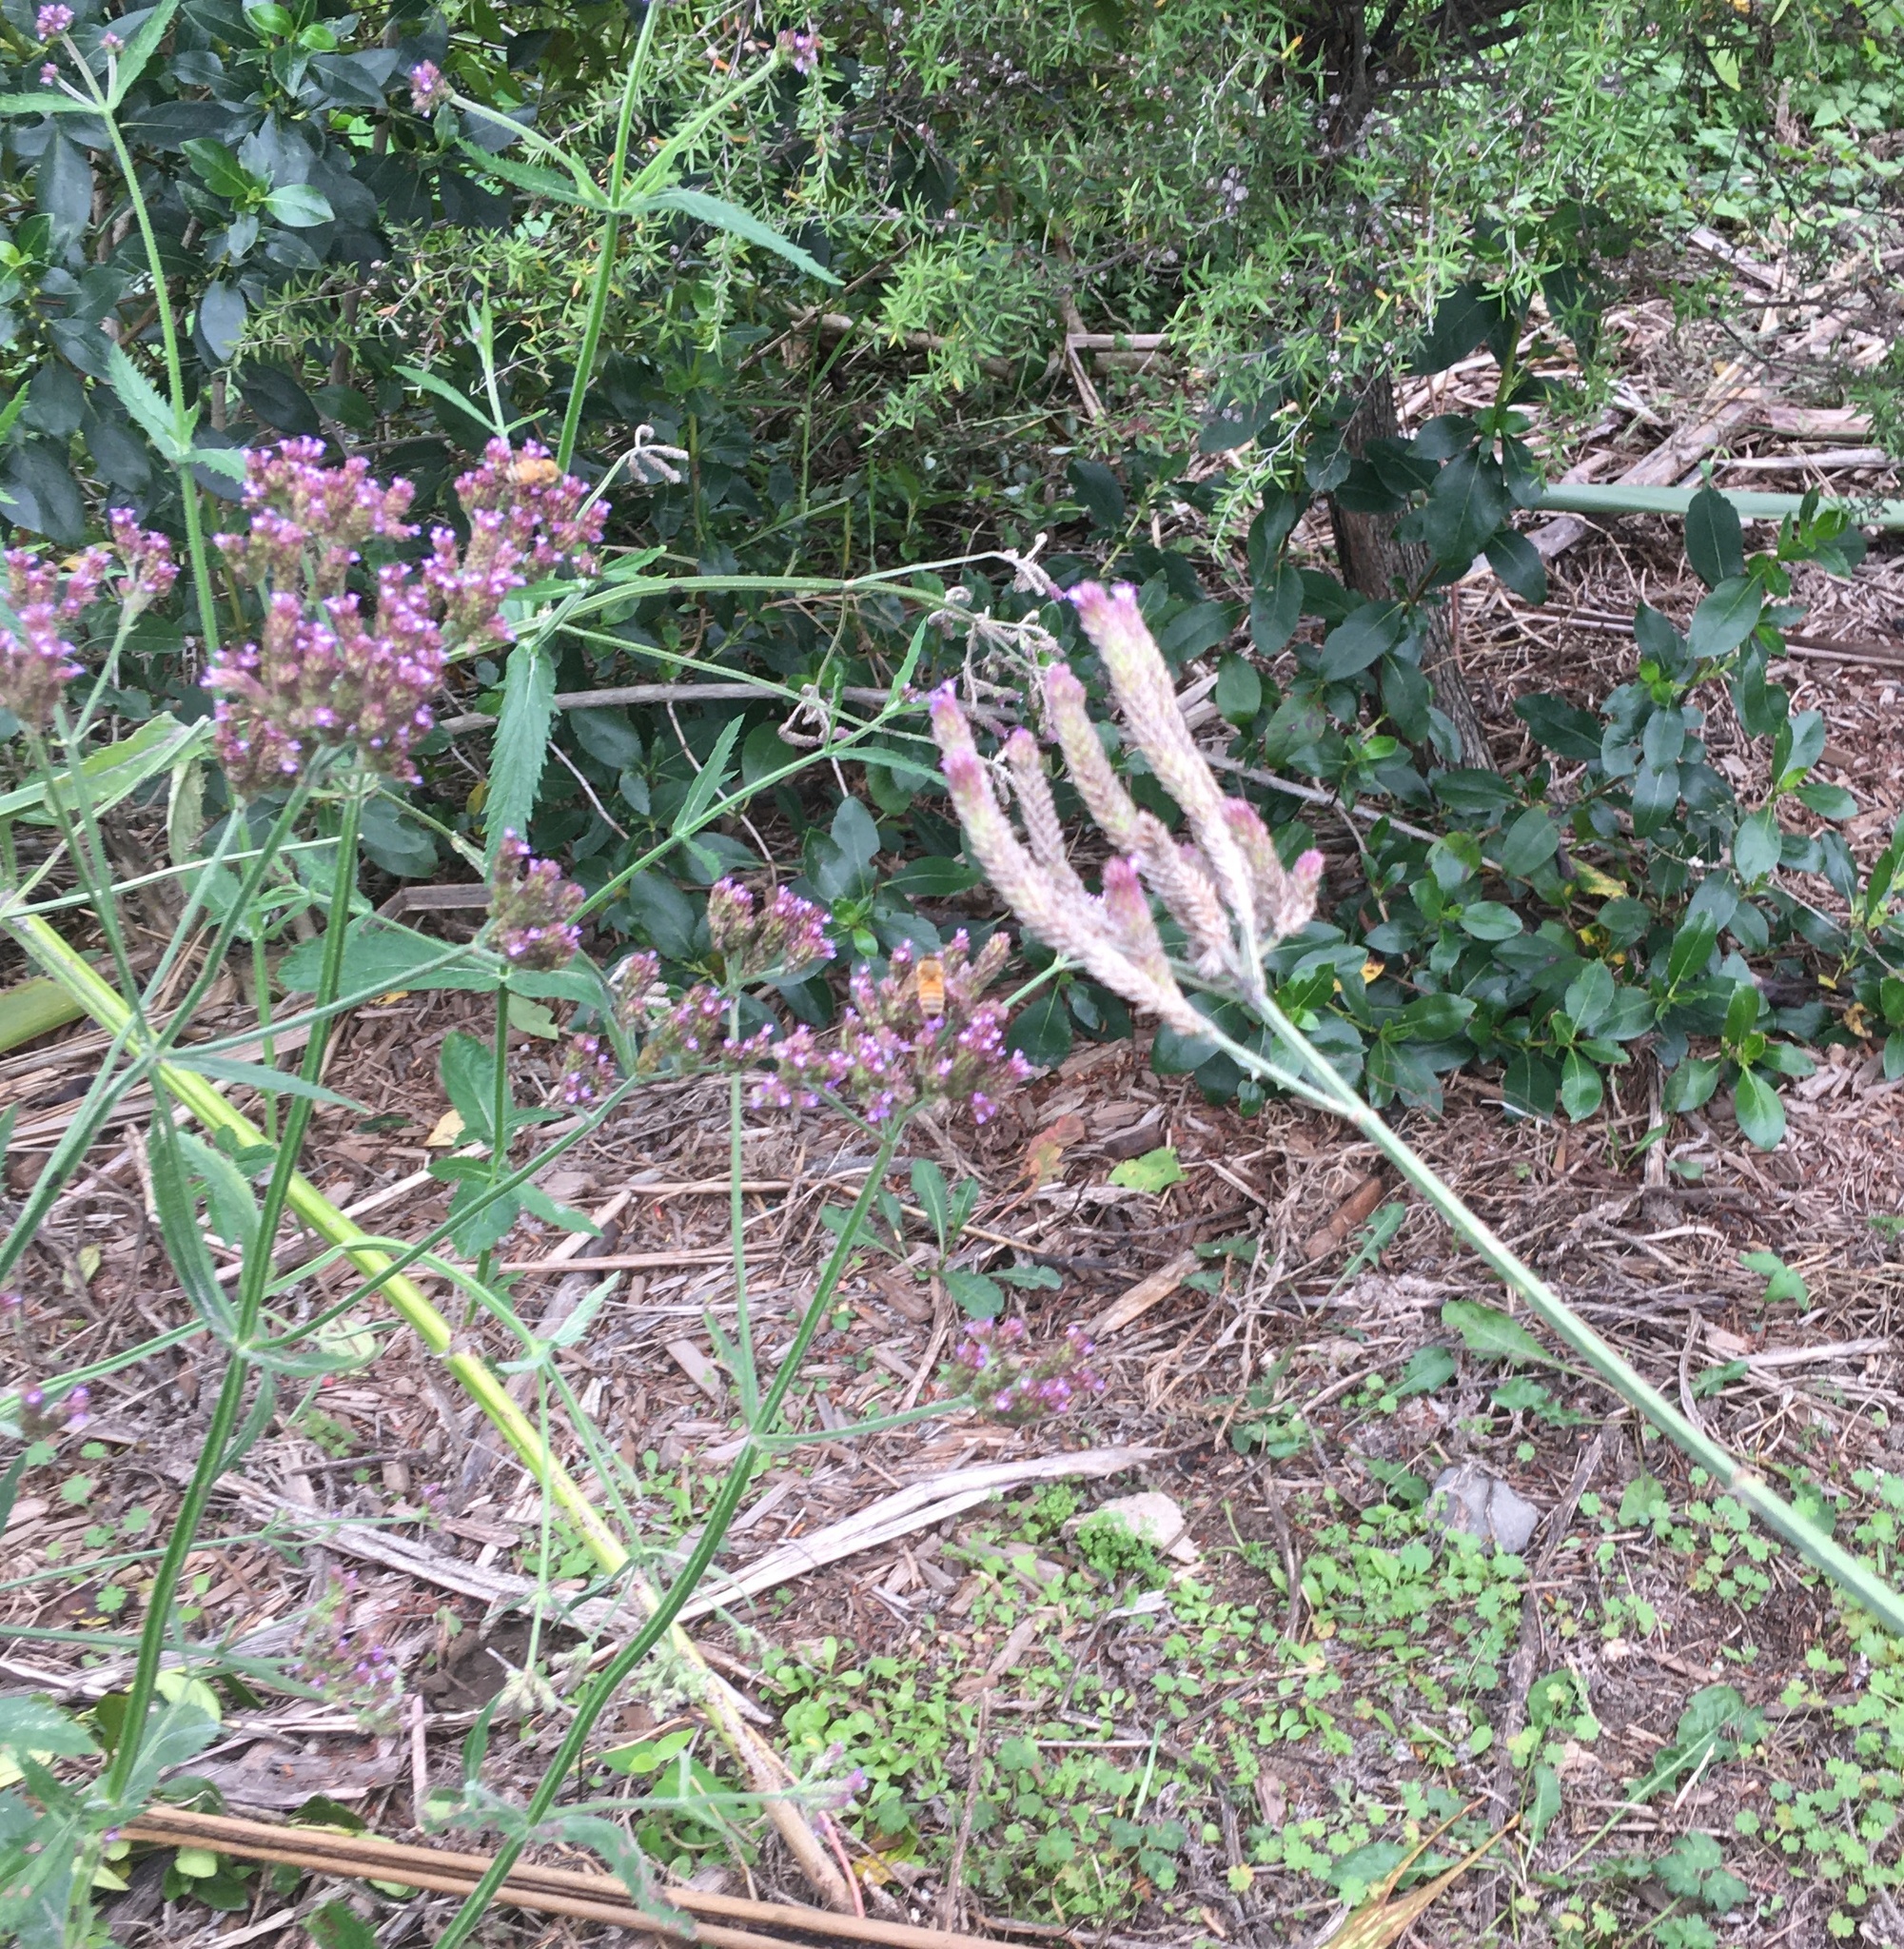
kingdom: Animalia
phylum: Arthropoda
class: Insecta
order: Hymenoptera
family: Apidae
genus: Apis
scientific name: Apis mellifera
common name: Honey bee
